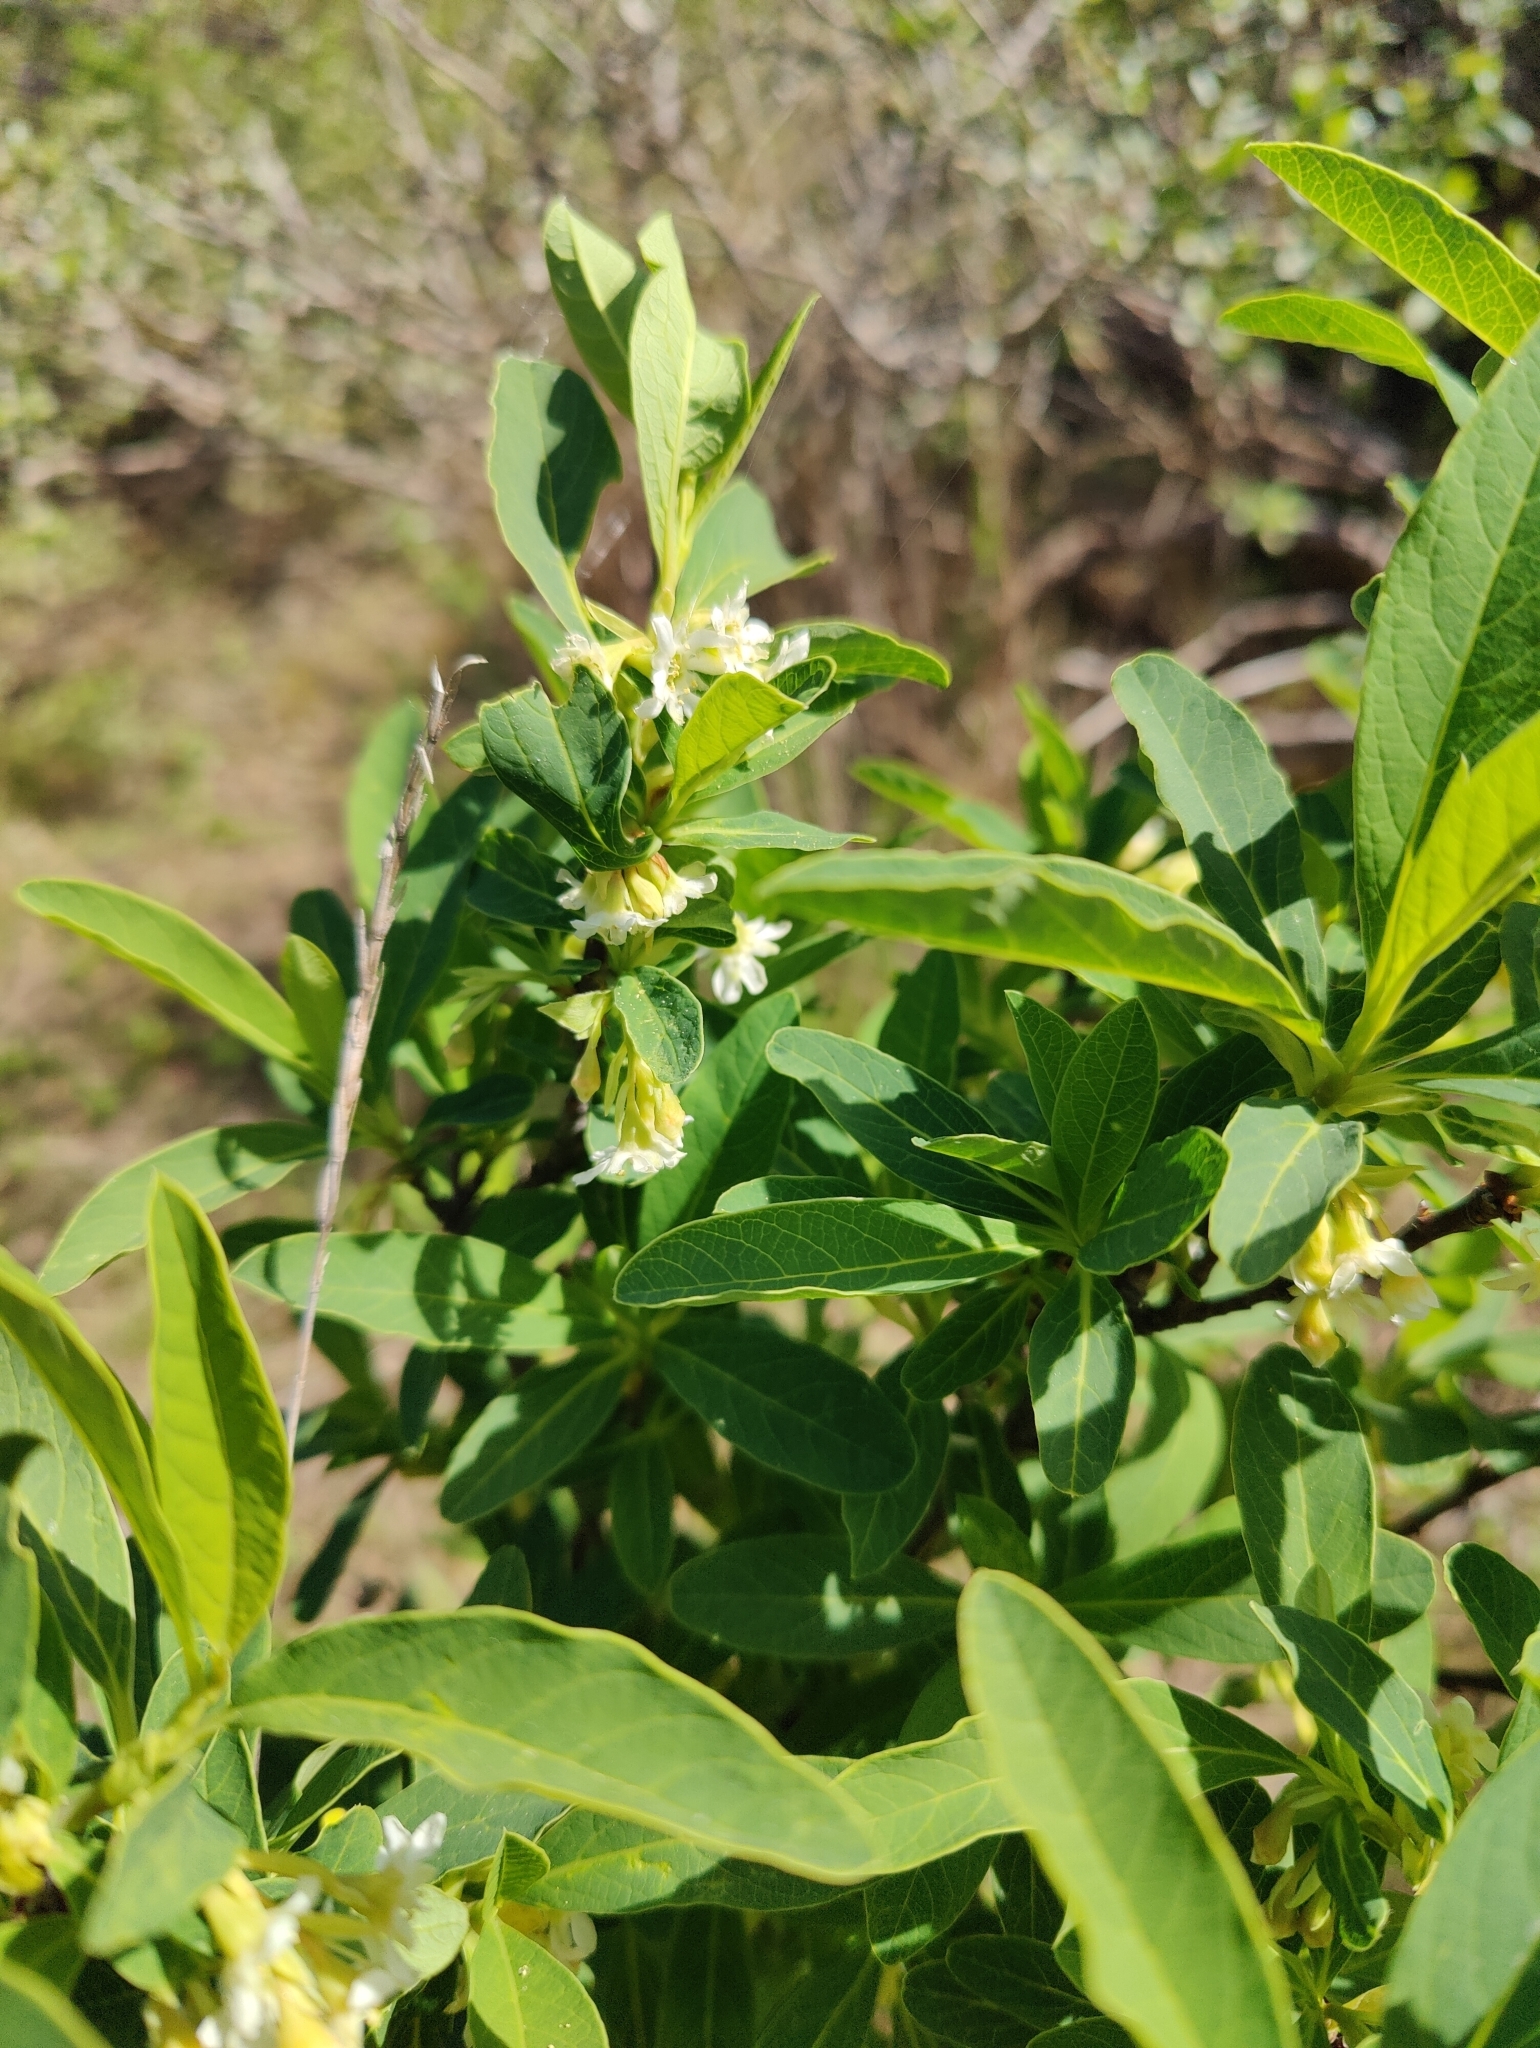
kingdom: Plantae
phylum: Tracheophyta
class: Magnoliopsida
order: Rosales
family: Rosaceae
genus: Oemleria
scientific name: Oemleria cerasiformis
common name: Osoberry
